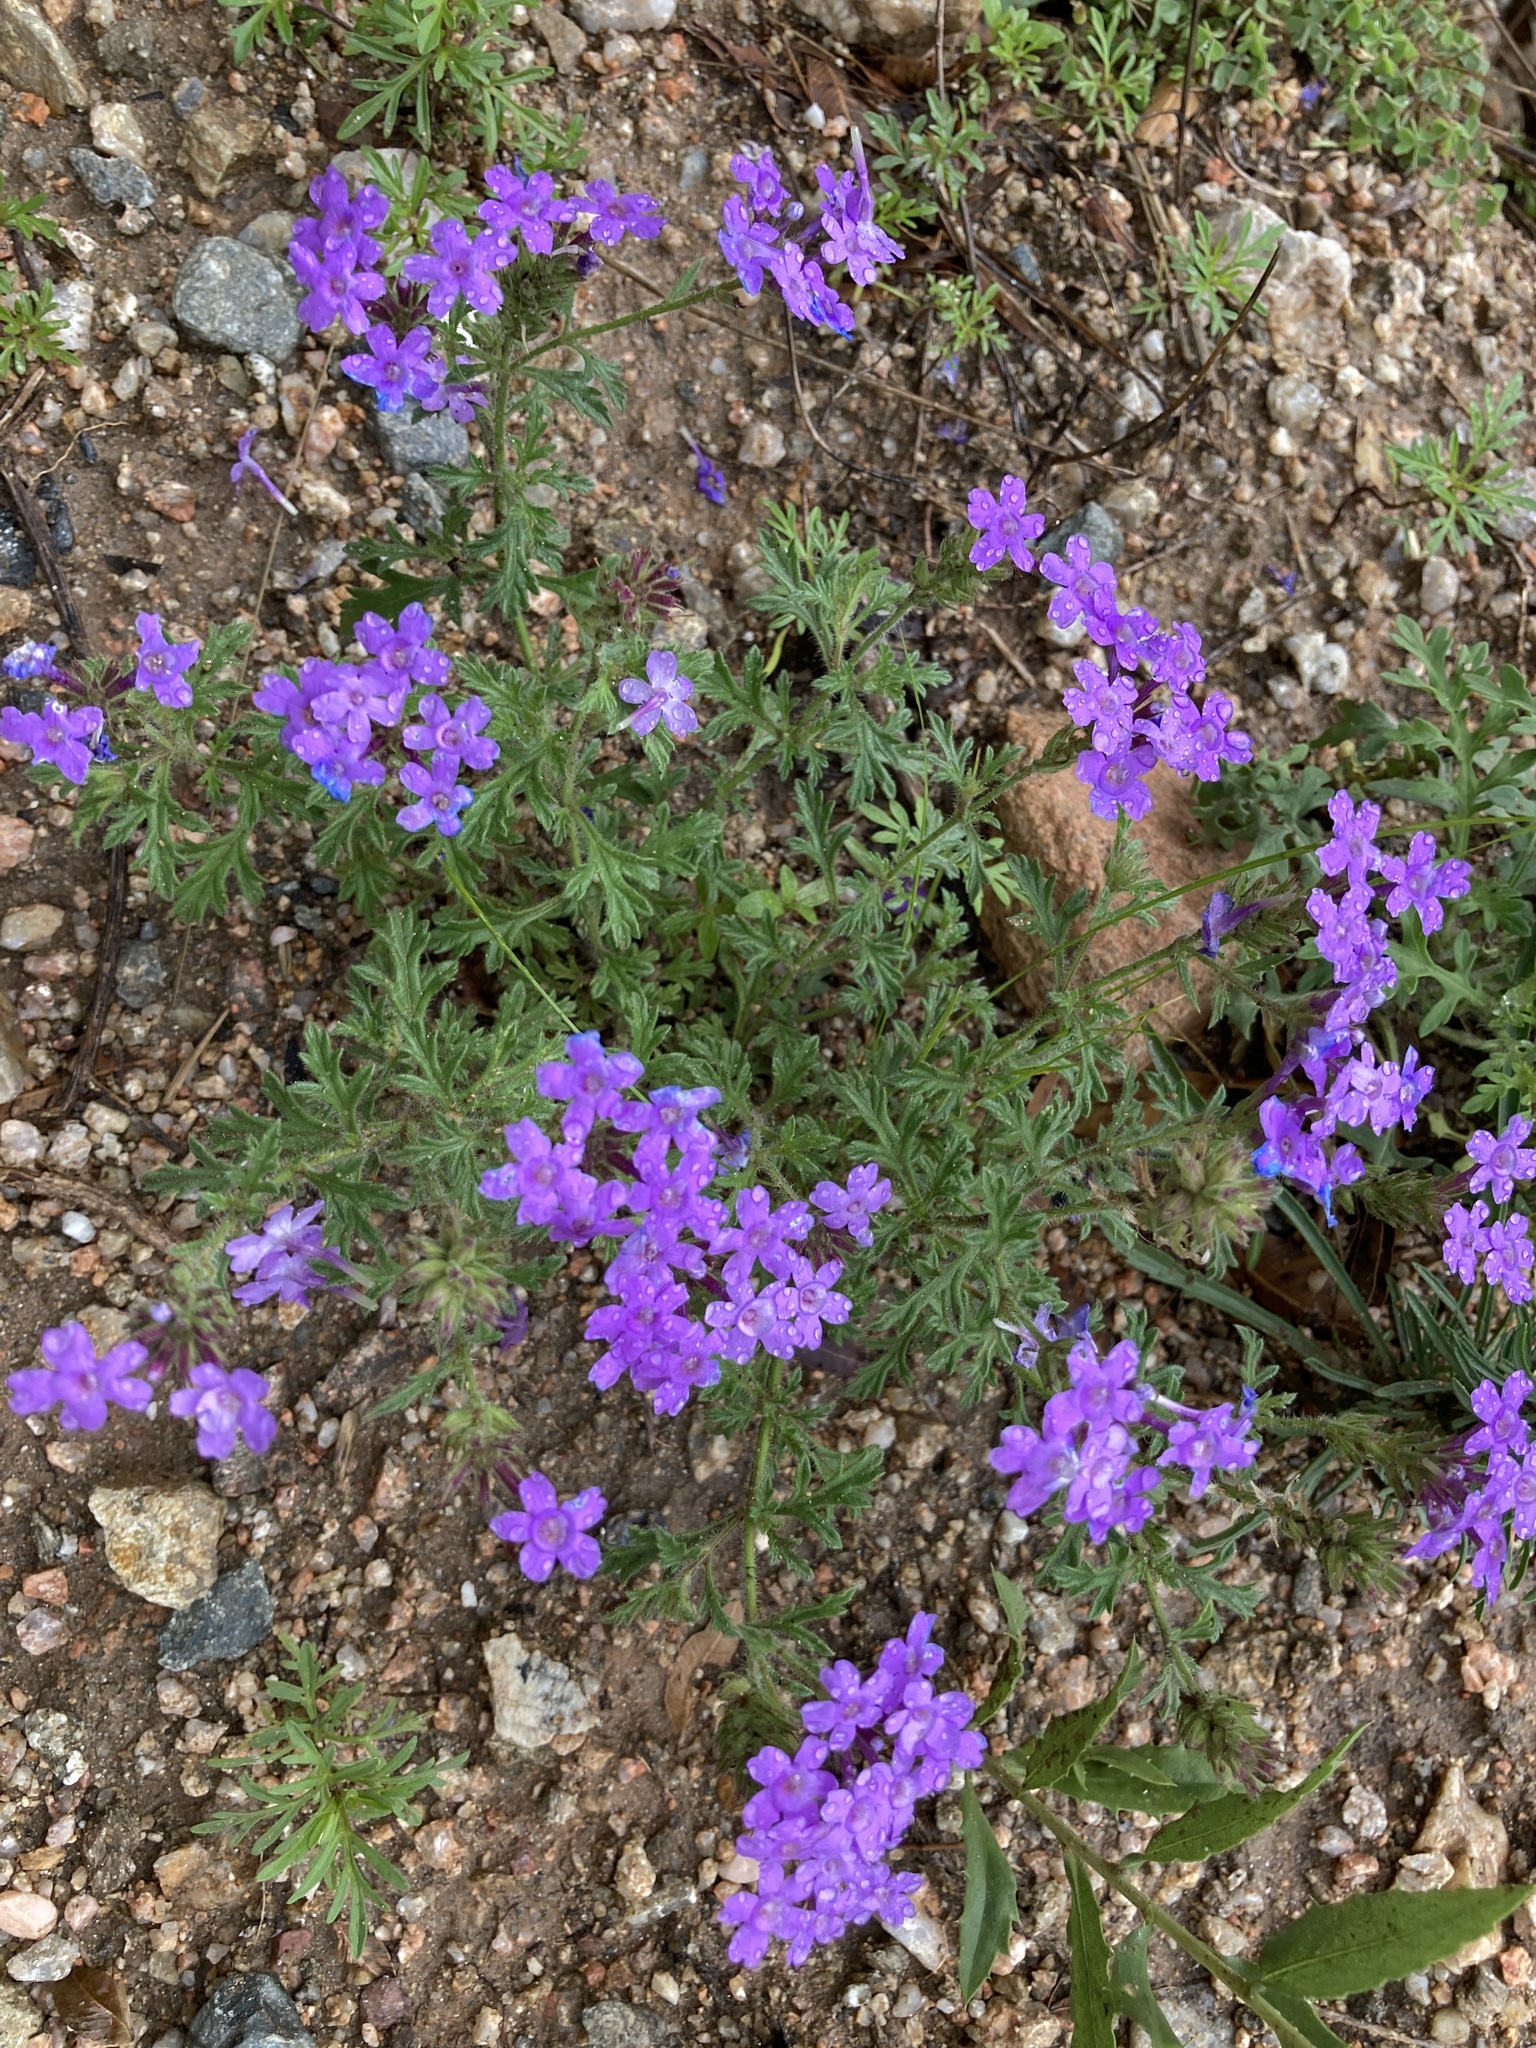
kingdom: Plantae
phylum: Tracheophyta
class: Magnoliopsida
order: Lamiales
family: Verbenaceae
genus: Verbena
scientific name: Verbena venturii
